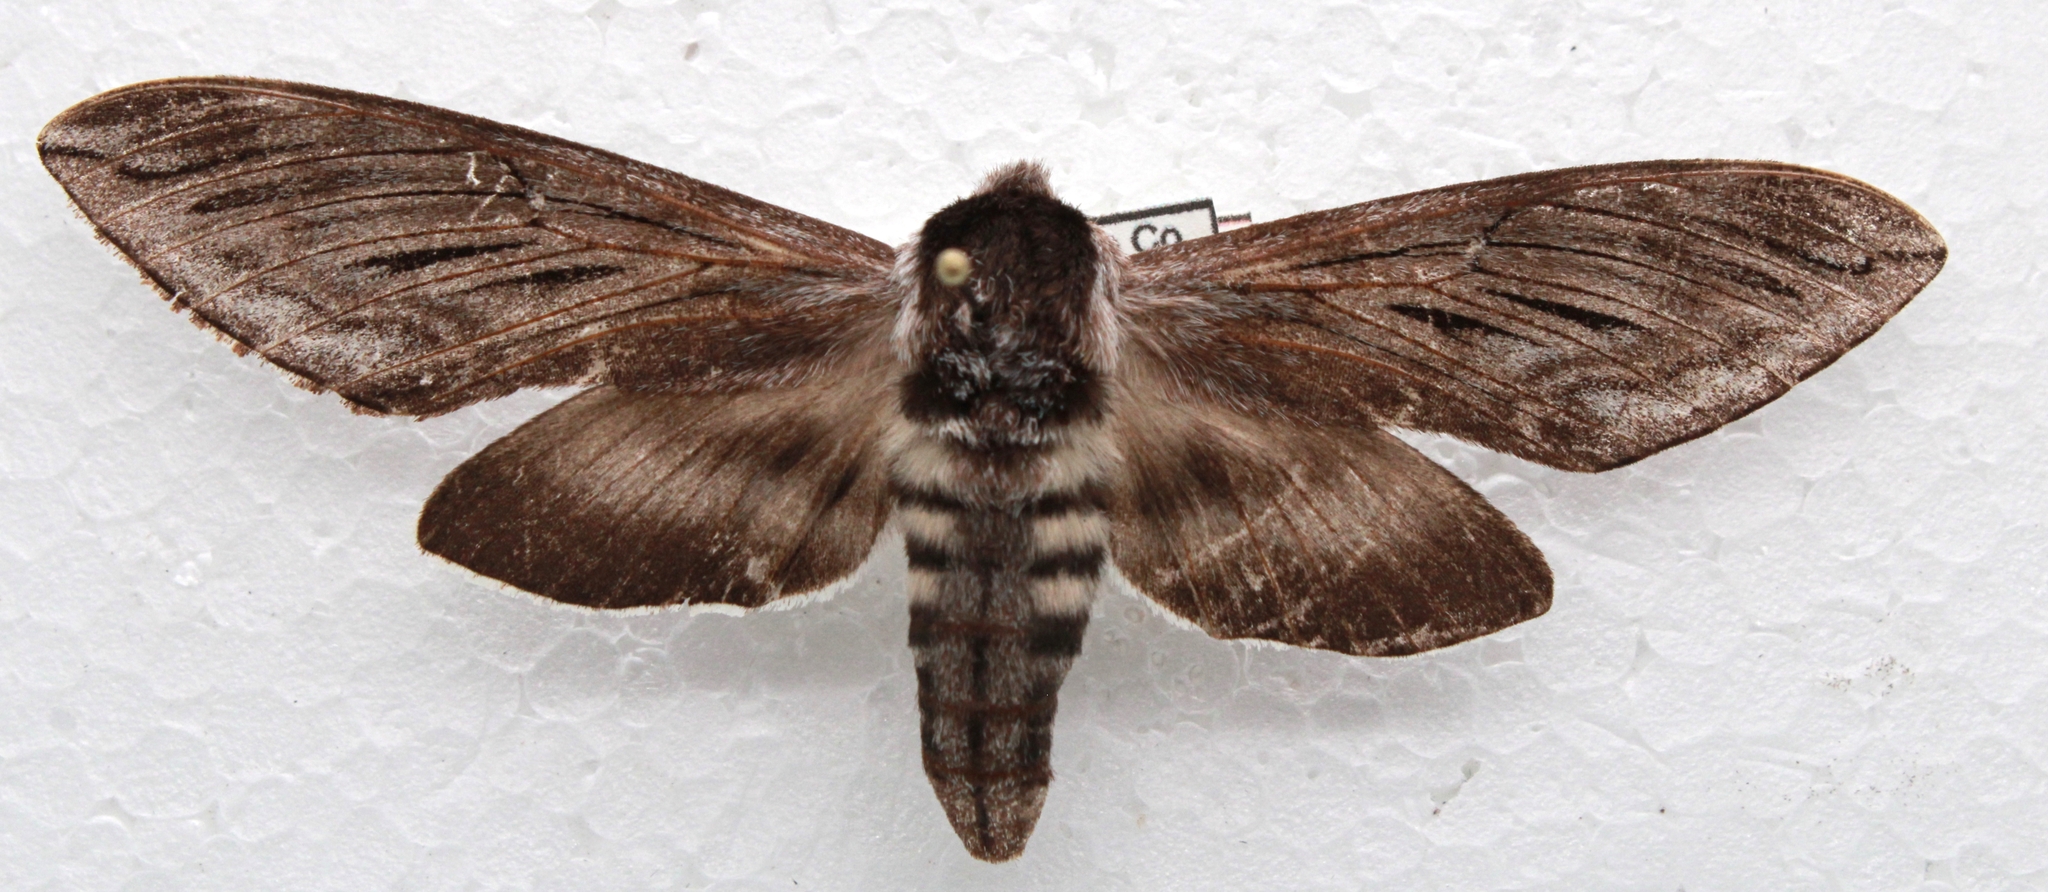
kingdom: Animalia
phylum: Arthropoda
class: Insecta
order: Lepidoptera
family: Sphingidae
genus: Sphinx
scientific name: Sphinx poecila
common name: Northern apple sphinx
